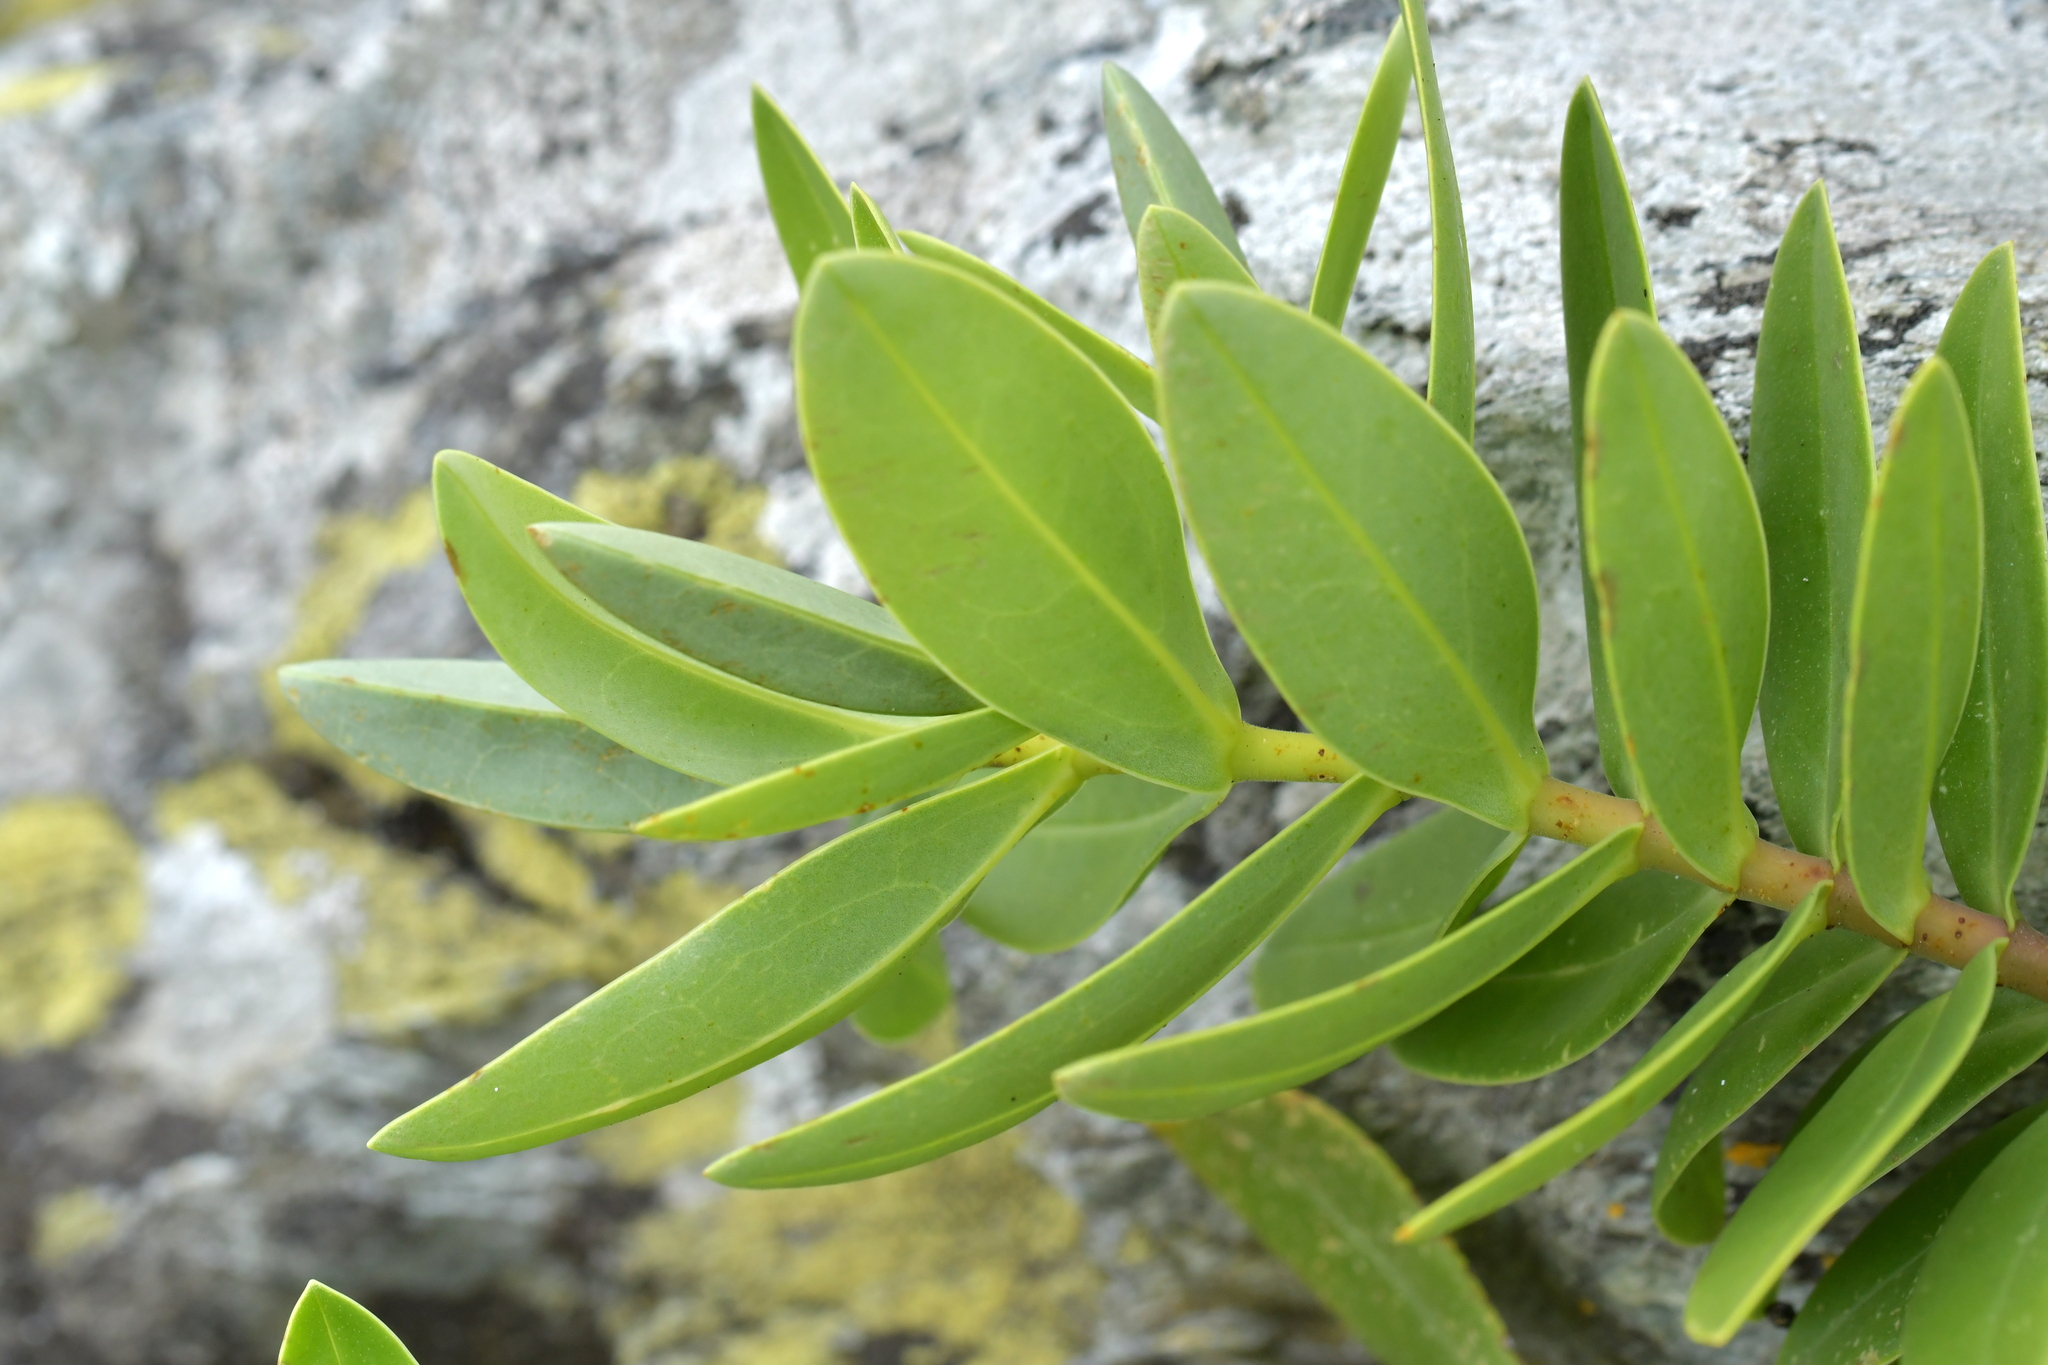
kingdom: Plantae
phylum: Tracheophyta
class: Magnoliopsida
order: Lamiales
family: Plantaginaceae
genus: Veronica
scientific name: Veronica chathamica
